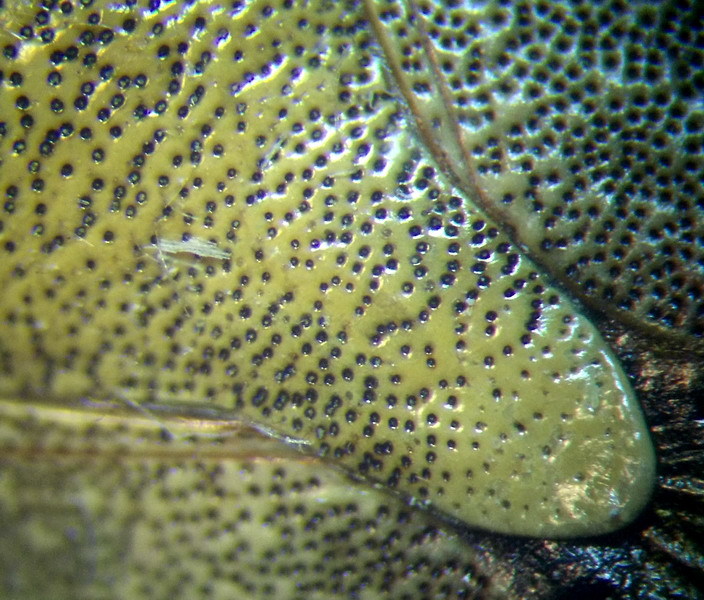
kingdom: Animalia
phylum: Arthropoda
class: Insecta
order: Hemiptera
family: Pentatomidae
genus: Dolycoris
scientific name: Dolycoris baccarum
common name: Sloe bug
